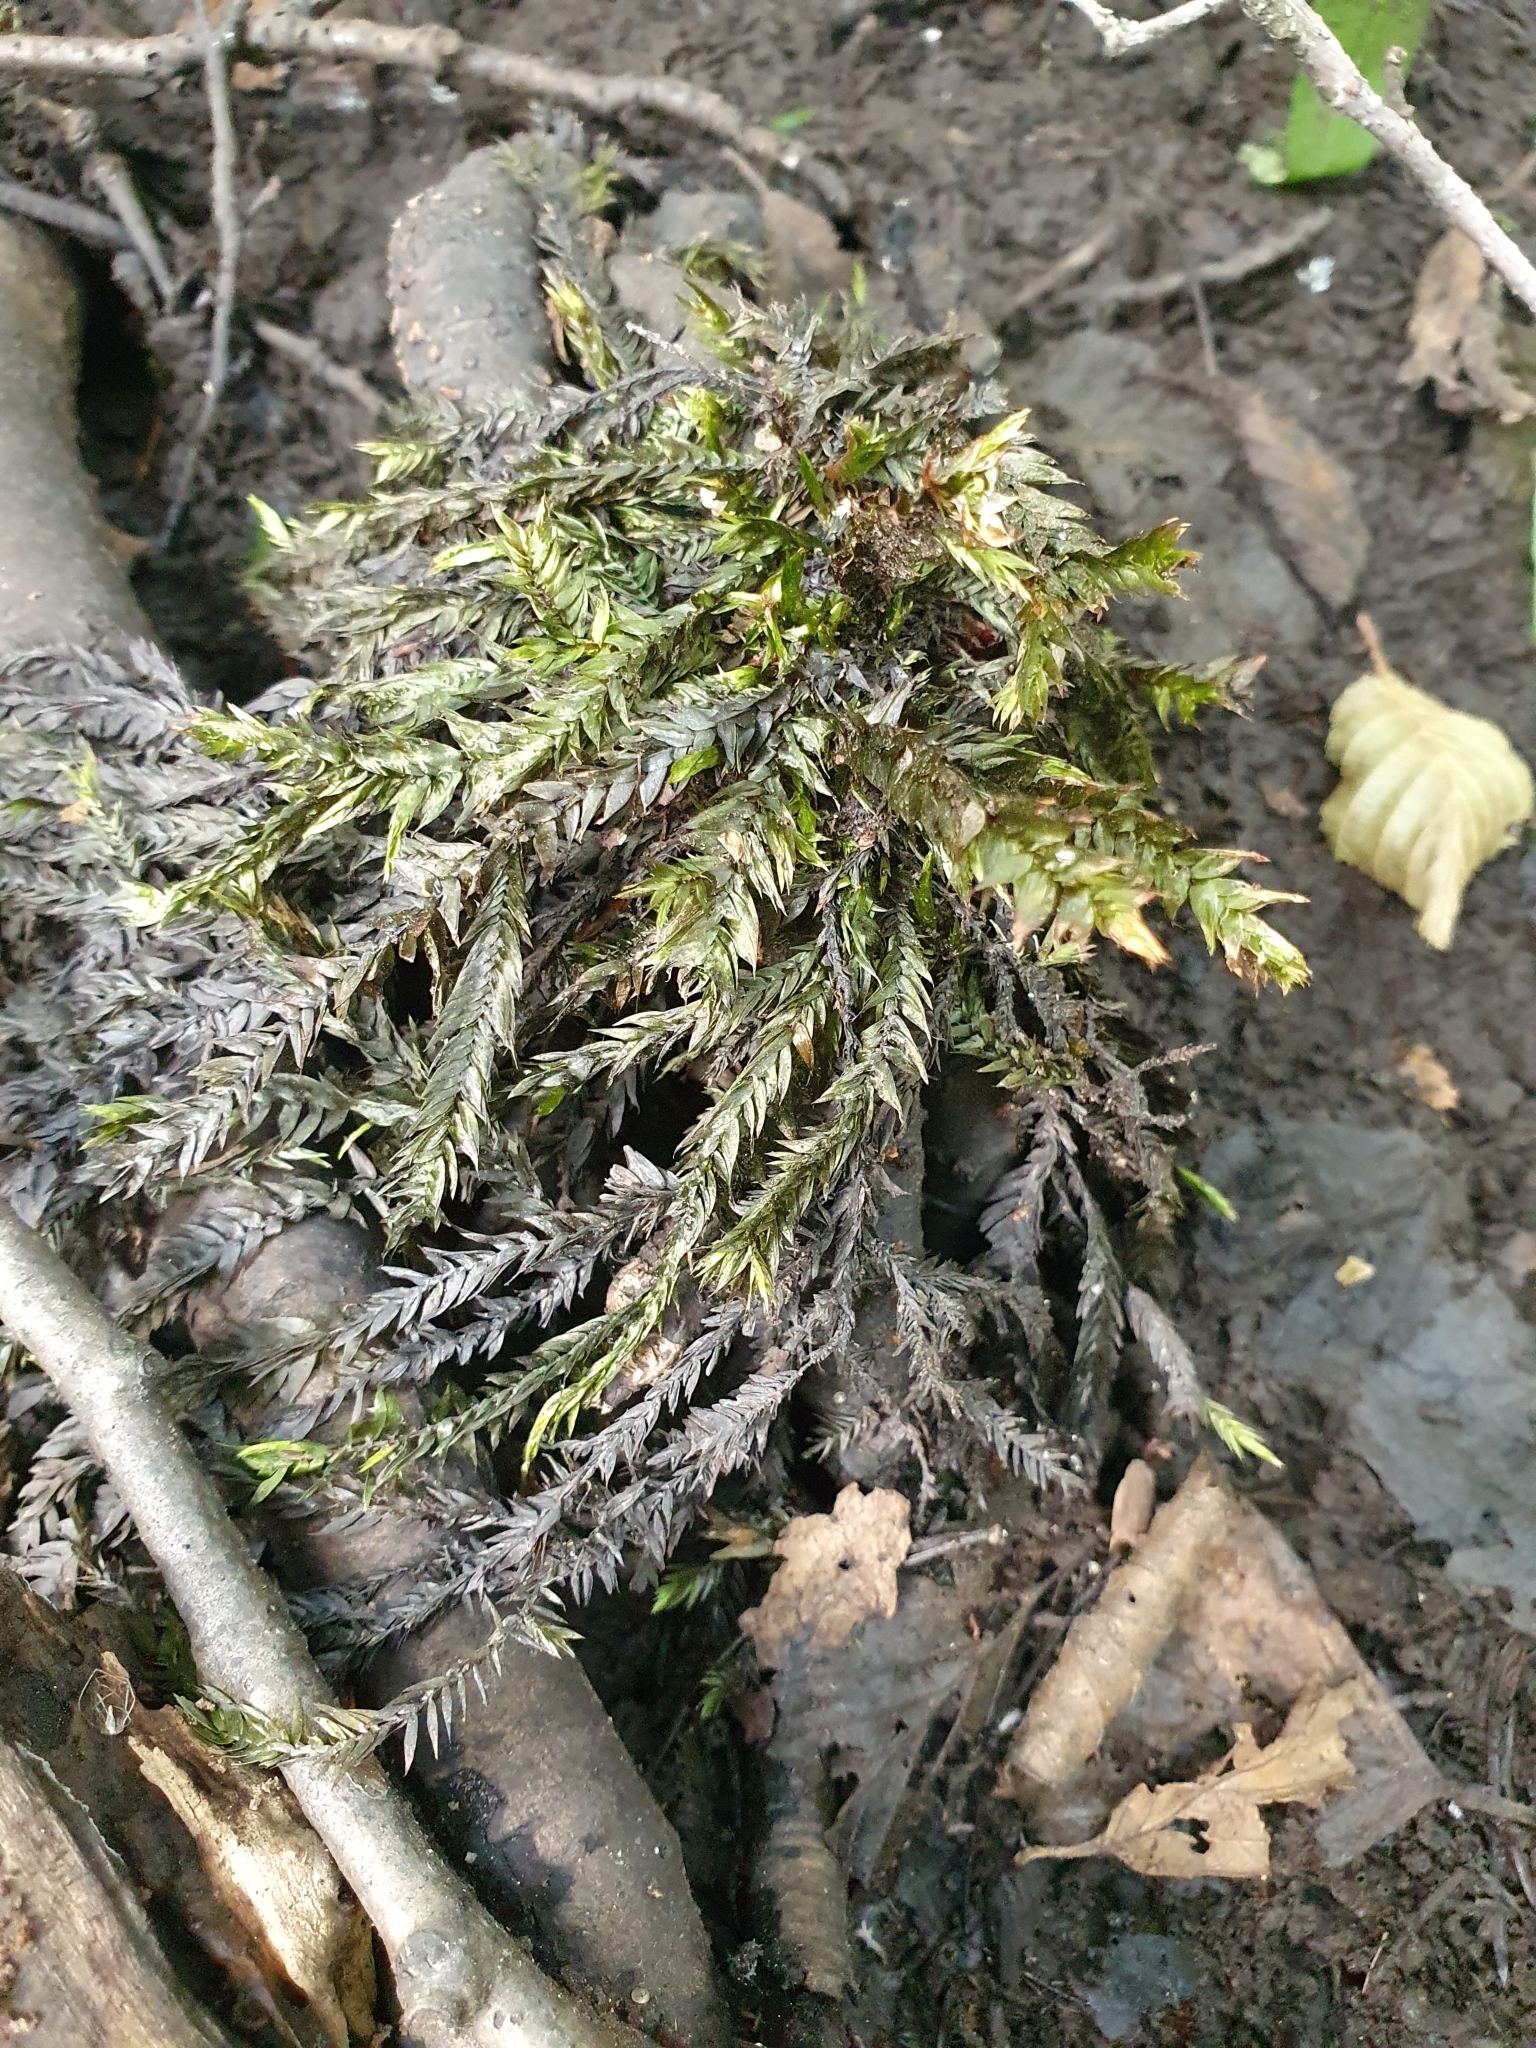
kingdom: Plantae
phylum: Bryophyta
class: Bryopsida
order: Hypnales
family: Fontinalaceae
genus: Fontinalis
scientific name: Fontinalis antipyretica
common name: Greater water-moss
